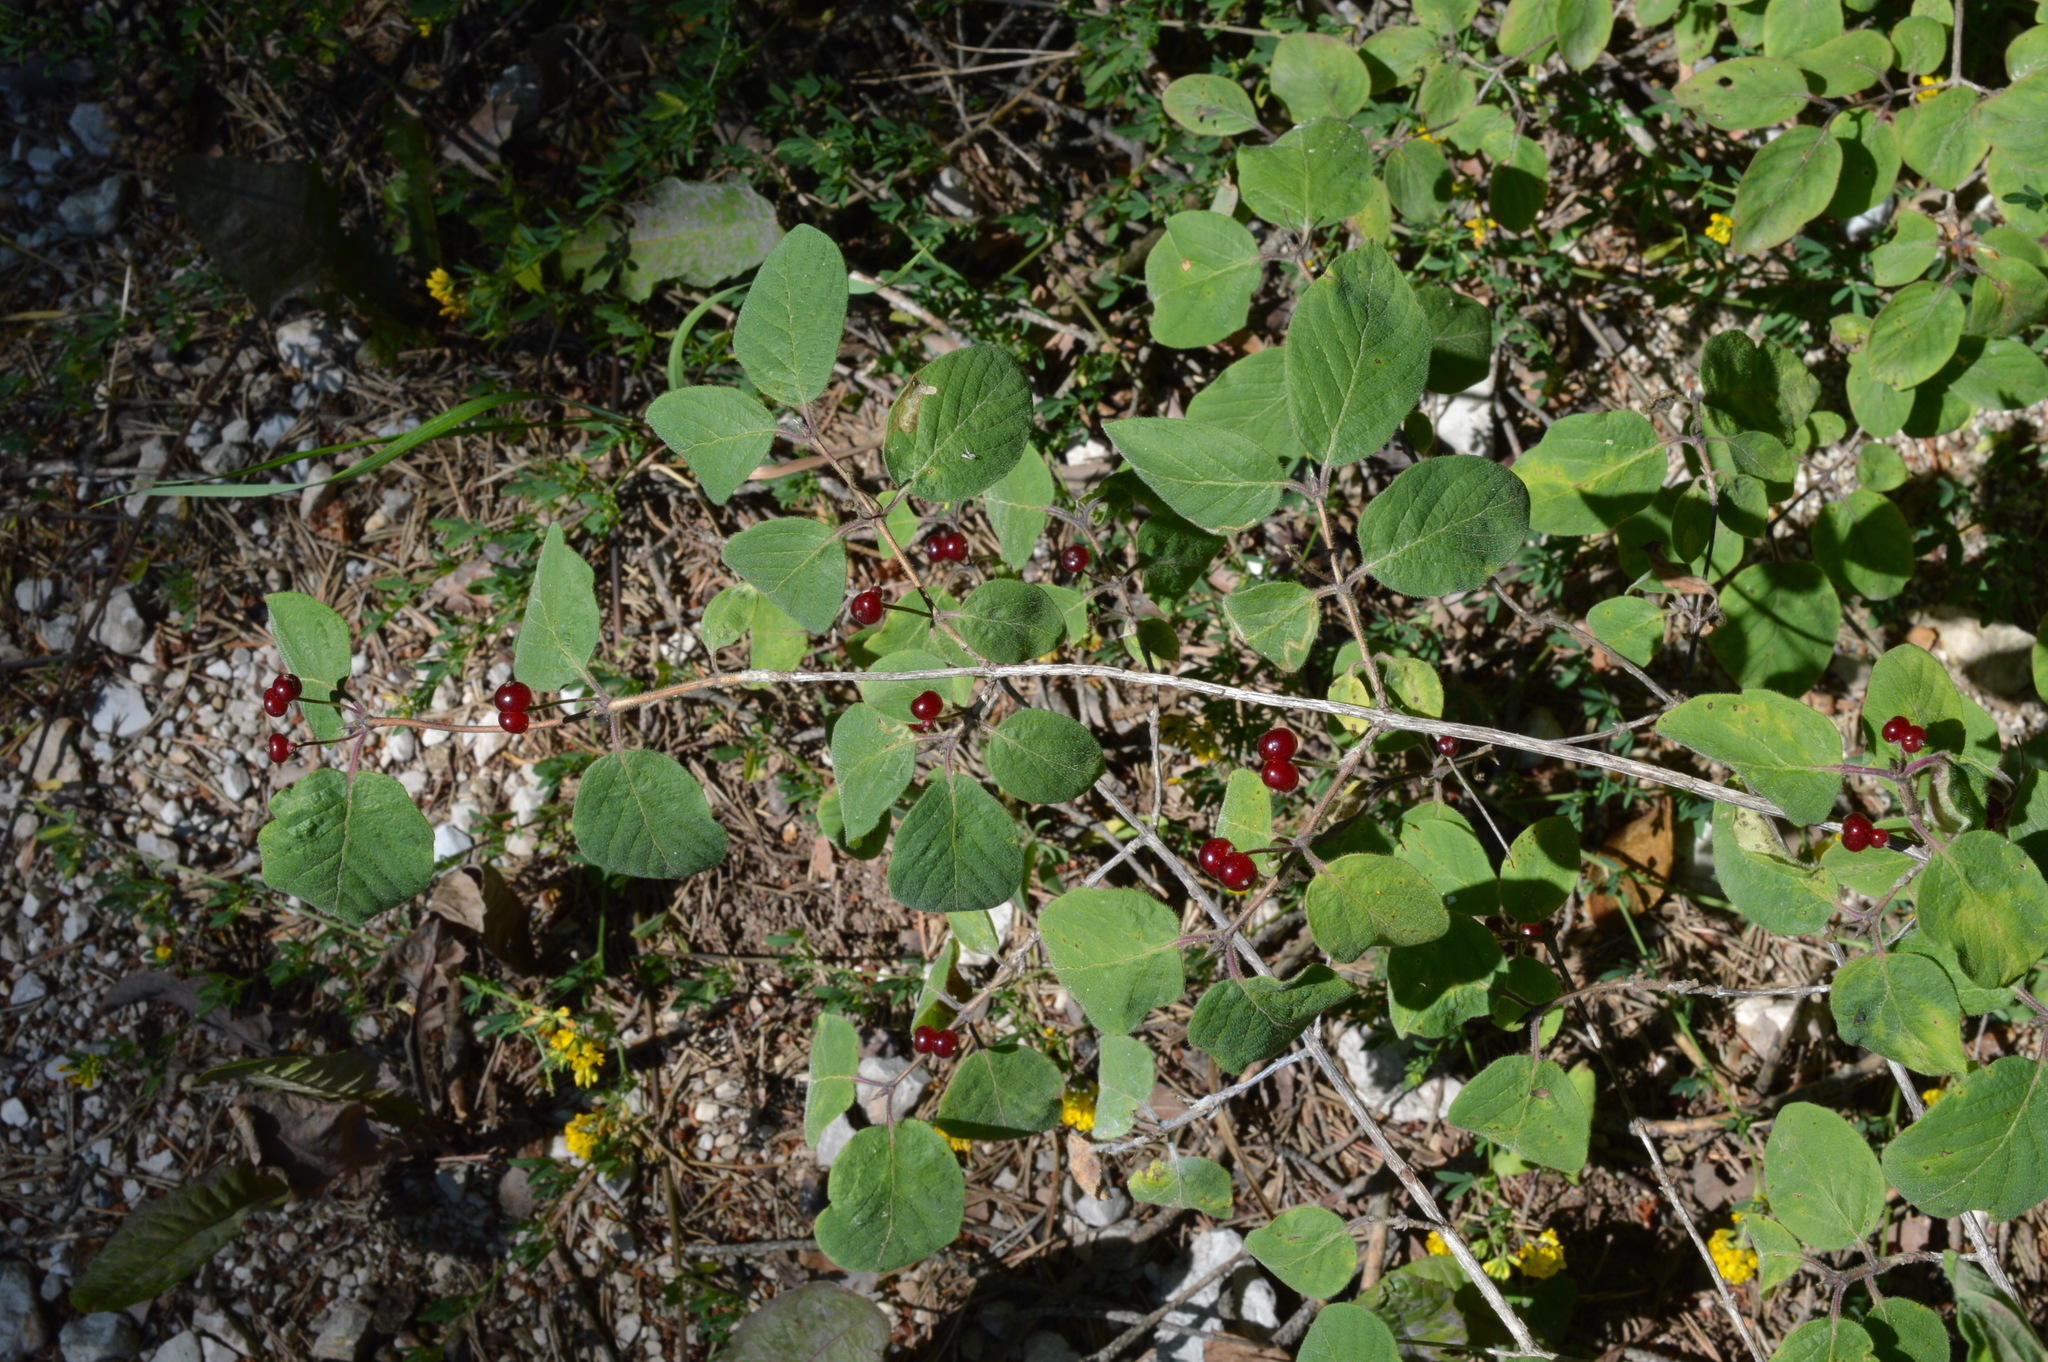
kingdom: Plantae
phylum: Tracheophyta
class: Magnoliopsida
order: Dipsacales
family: Caprifoliaceae
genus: Lonicera
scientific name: Lonicera xylosteum
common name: Fly honeysuckle
